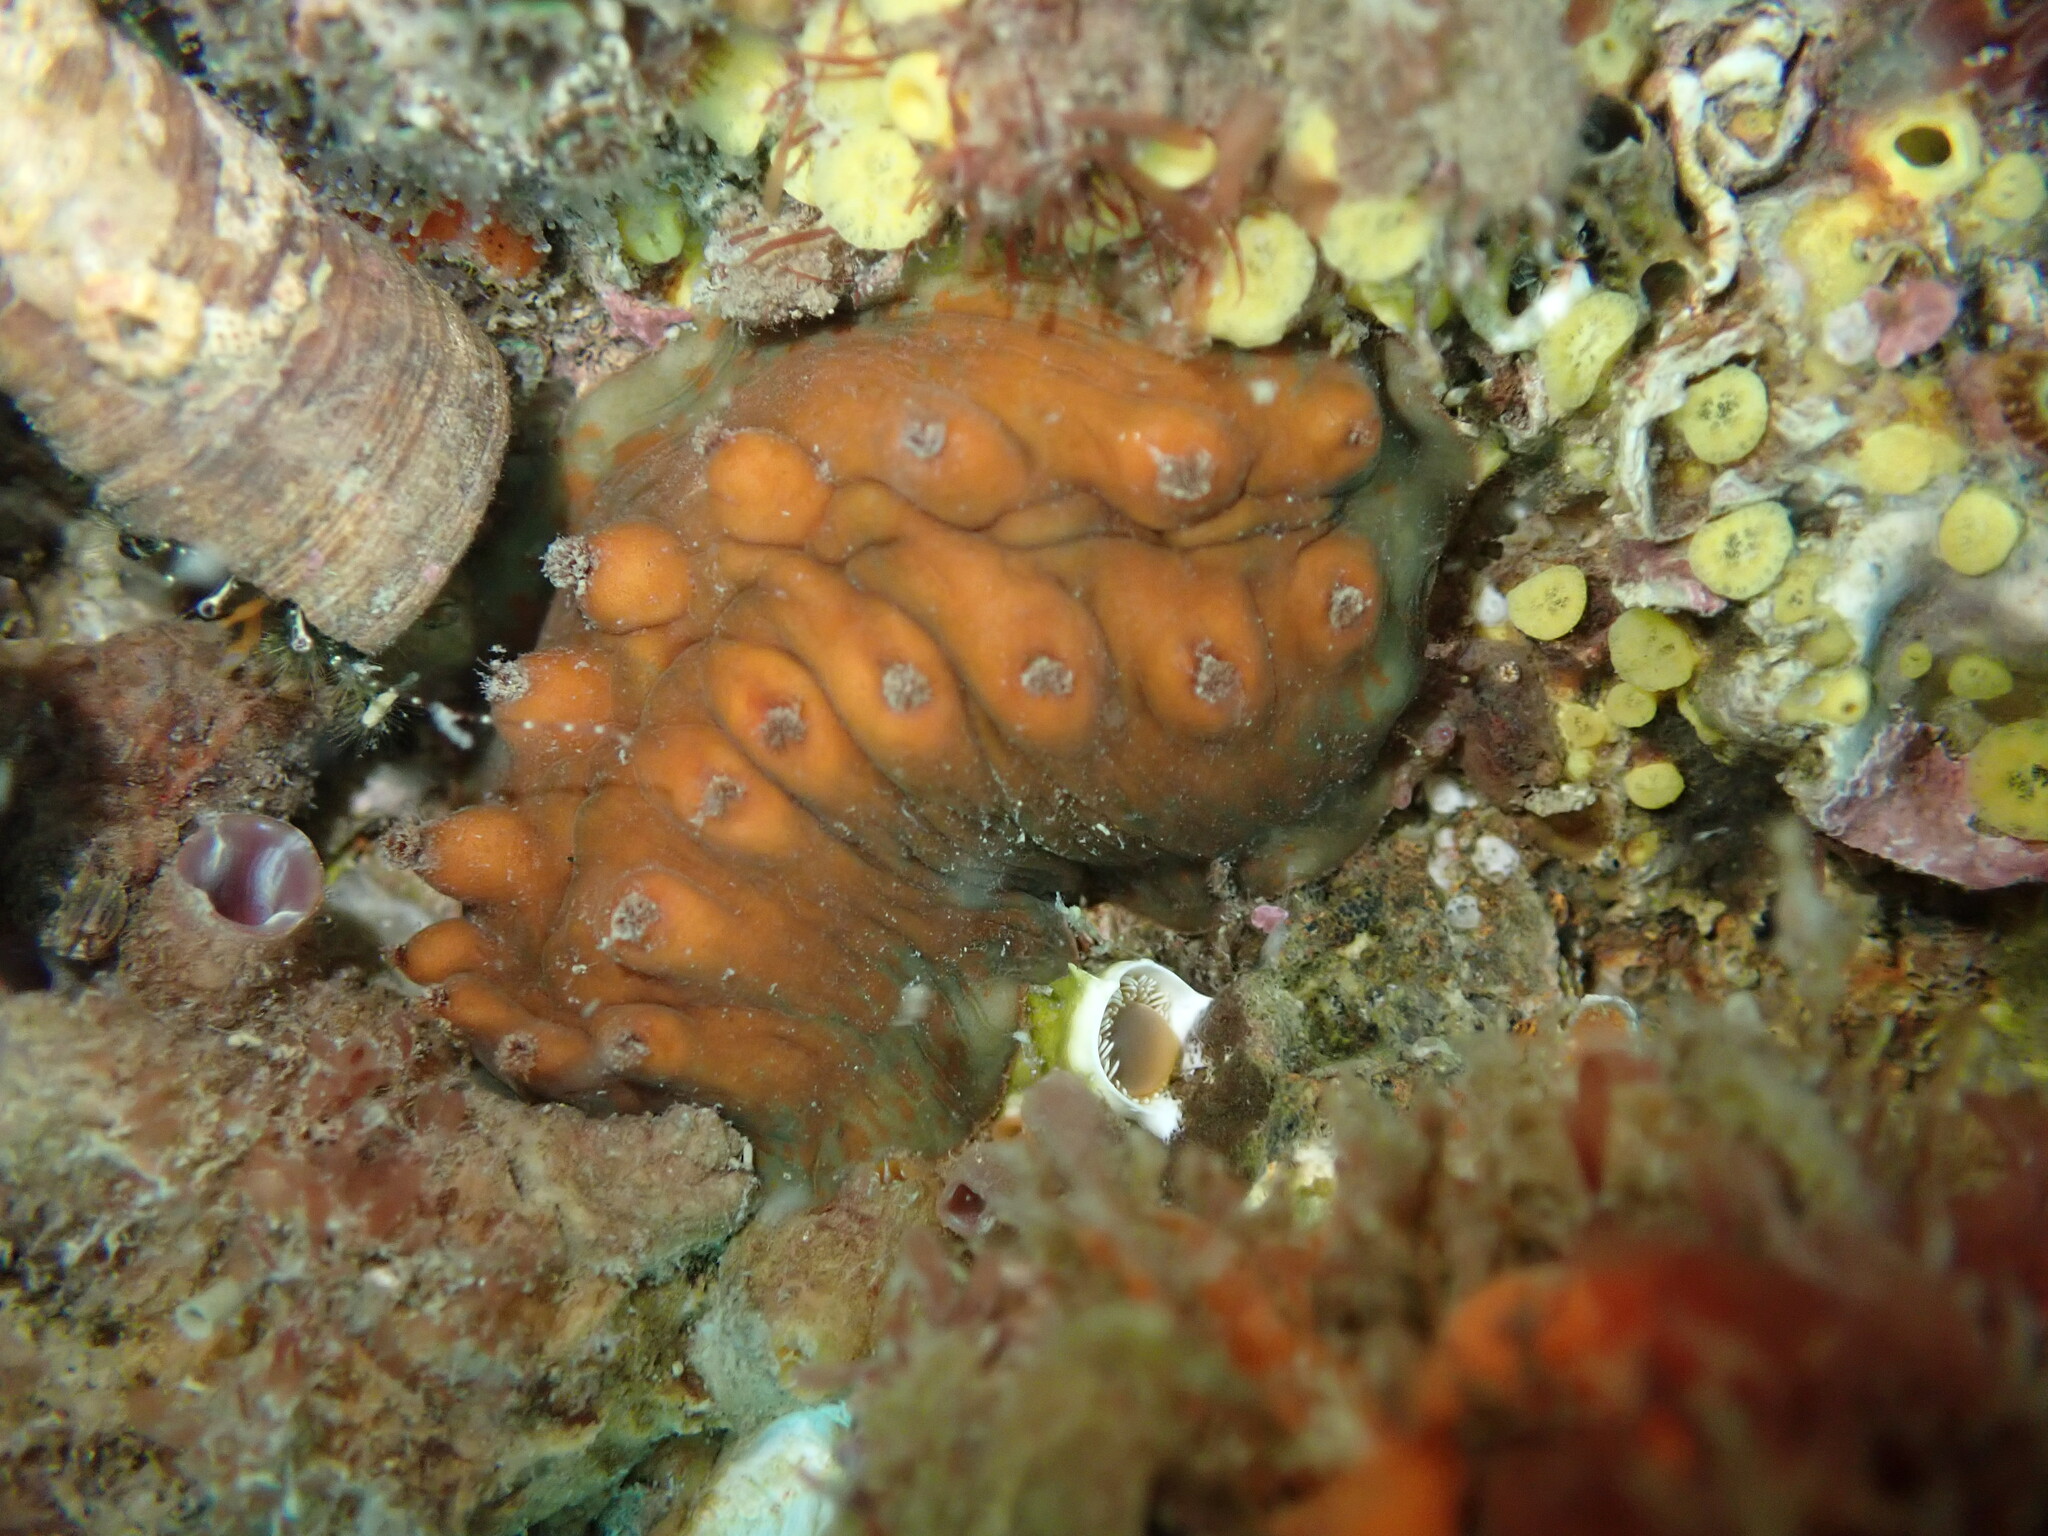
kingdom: Animalia
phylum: Mollusca
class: Polyplacophora
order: Chitonida
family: Acanthochitonidae
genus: Cryptoconchus
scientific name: Cryptoconchus porosus
